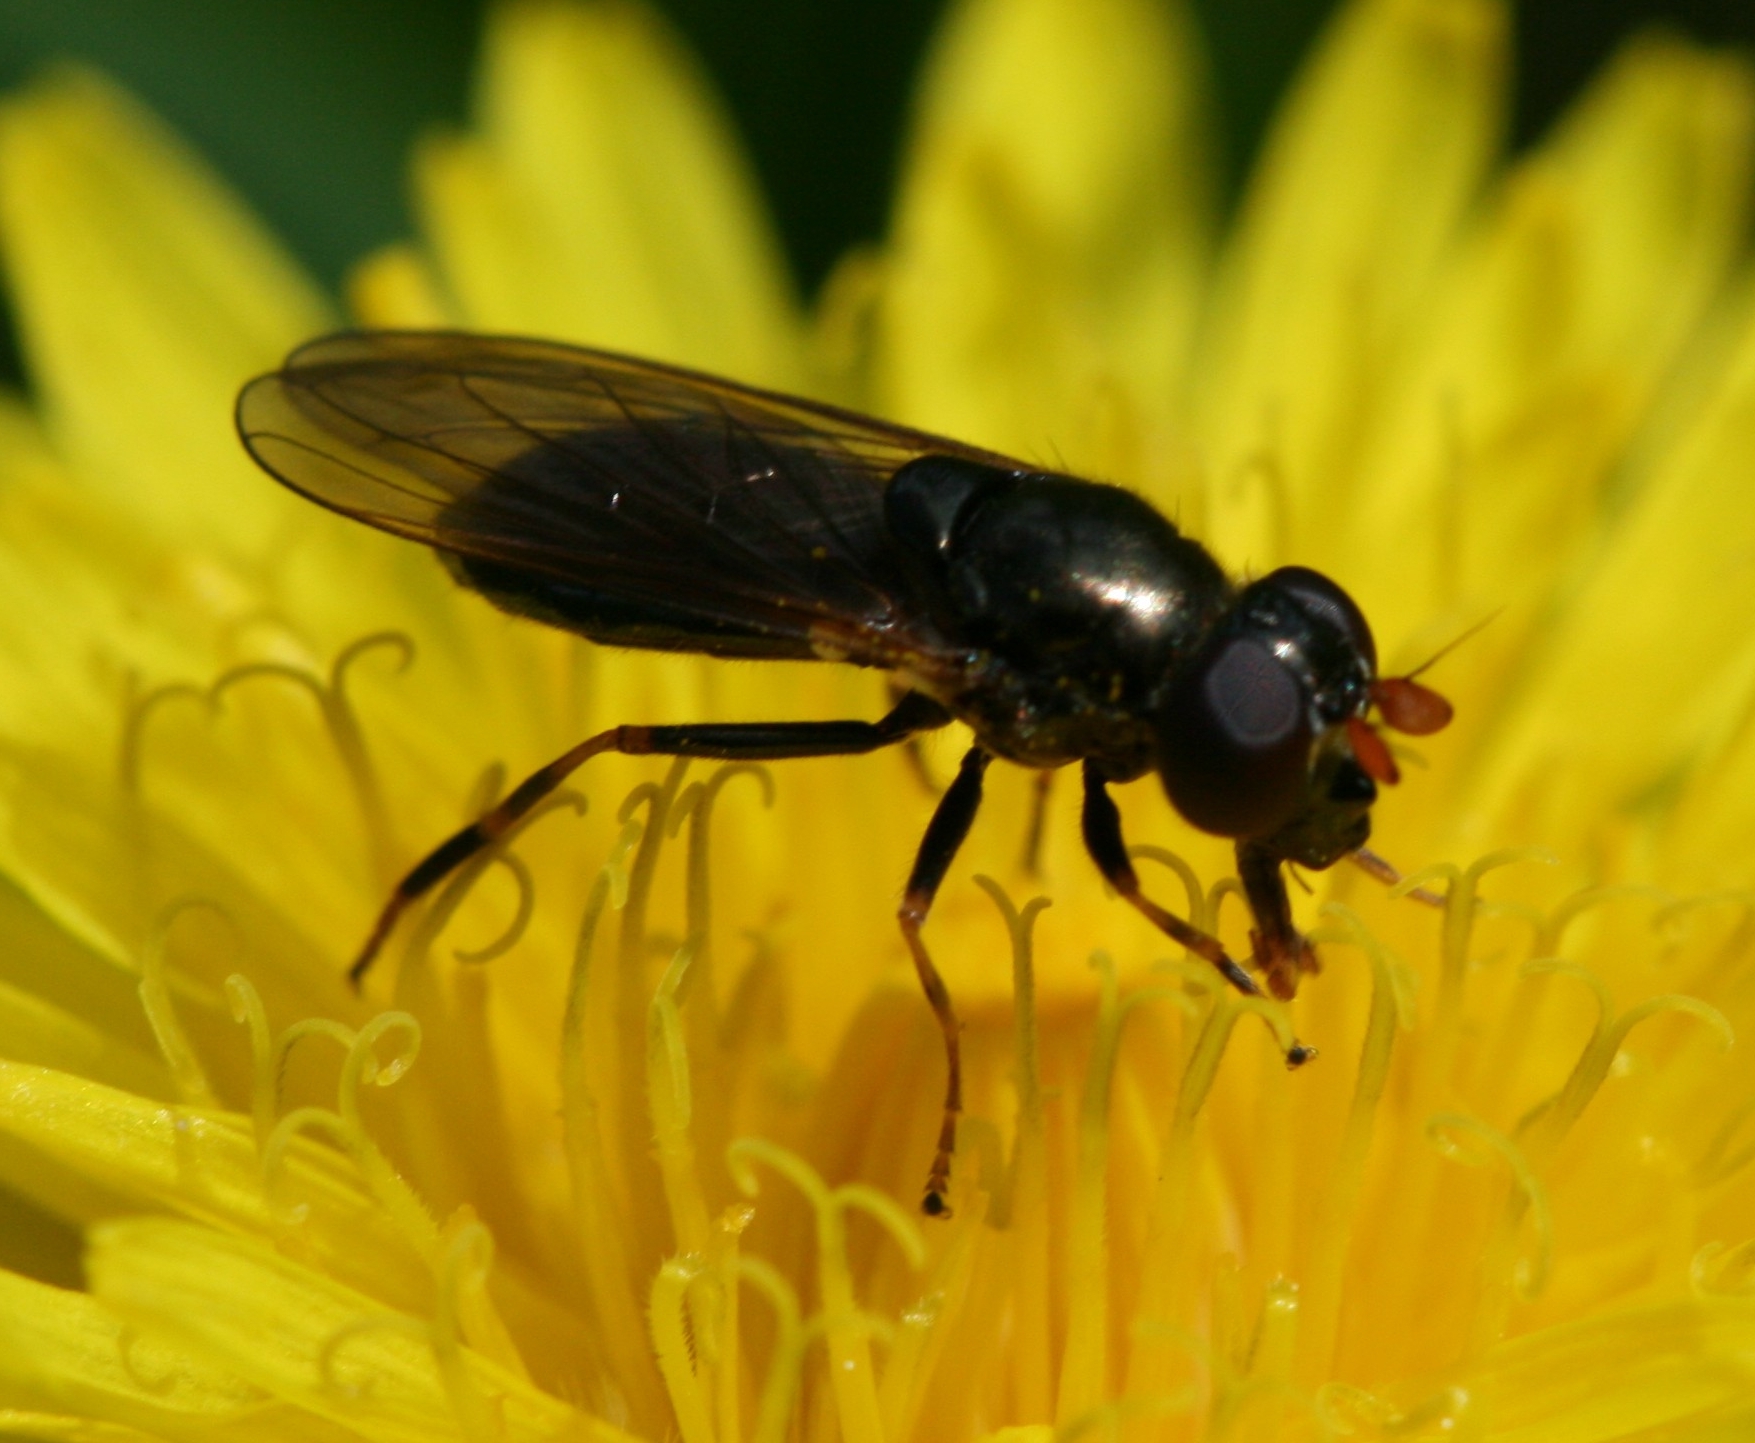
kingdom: Animalia
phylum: Arthropoda
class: Insecta
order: Diptera
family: Syrphidae
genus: Cheilosia
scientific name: Cheilosia pagana
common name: Hover fly
